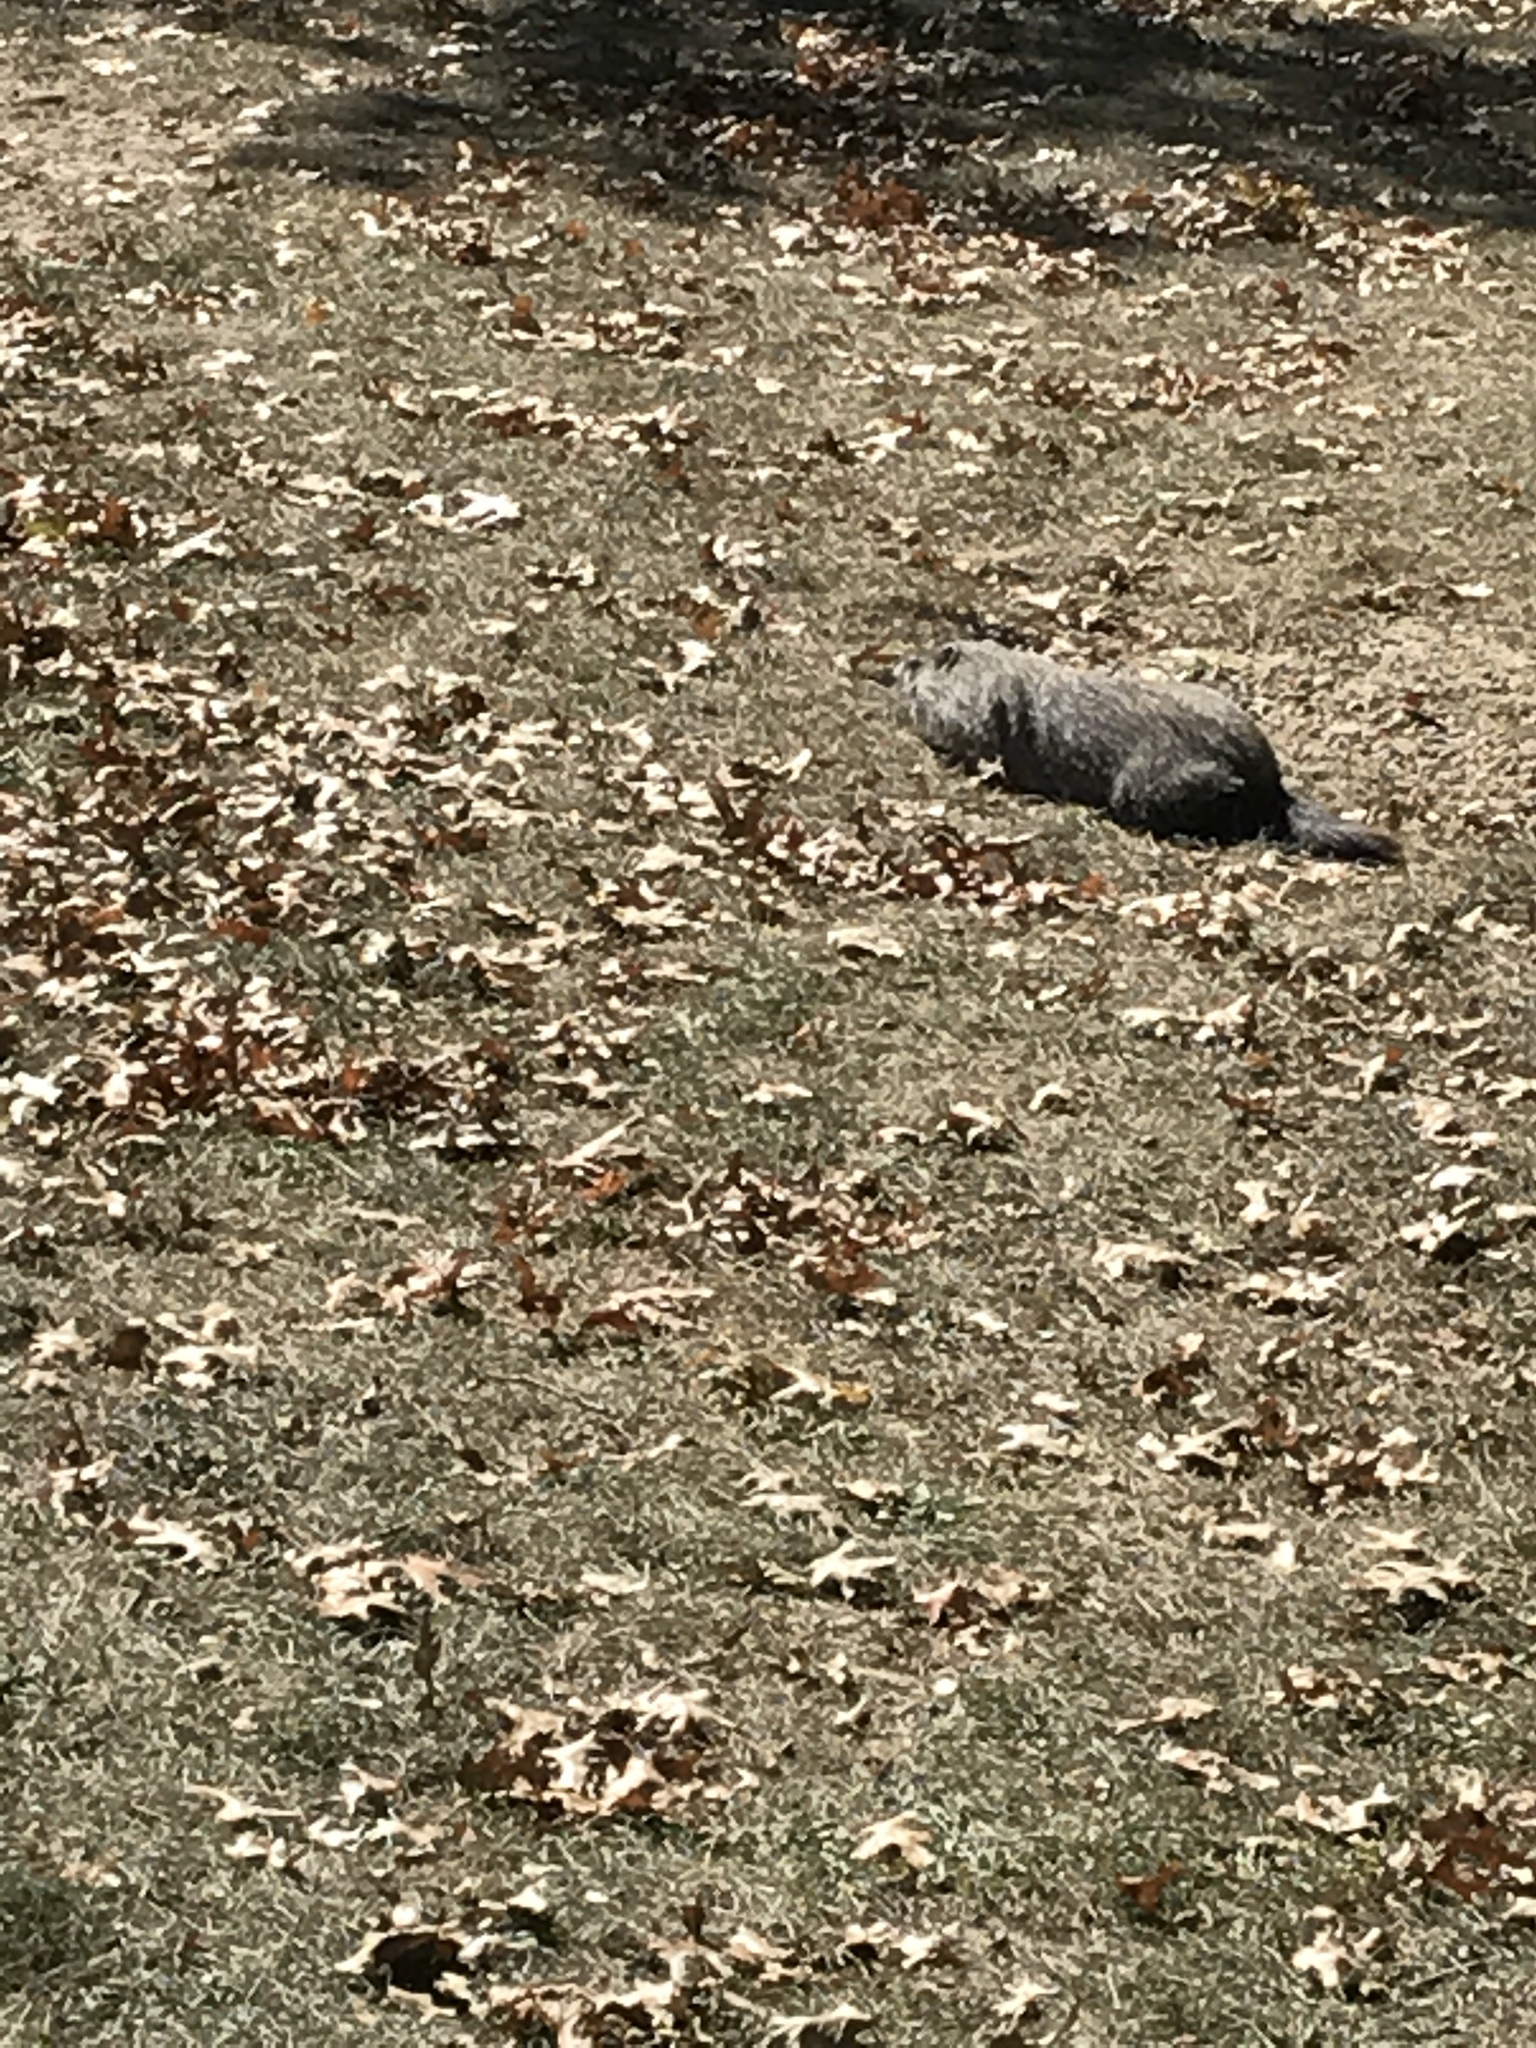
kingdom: Animalia
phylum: Chordata
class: Mammalia
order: Rodentia
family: Sciuridae
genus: Marmota
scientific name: Marmota monax
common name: Groundhog
